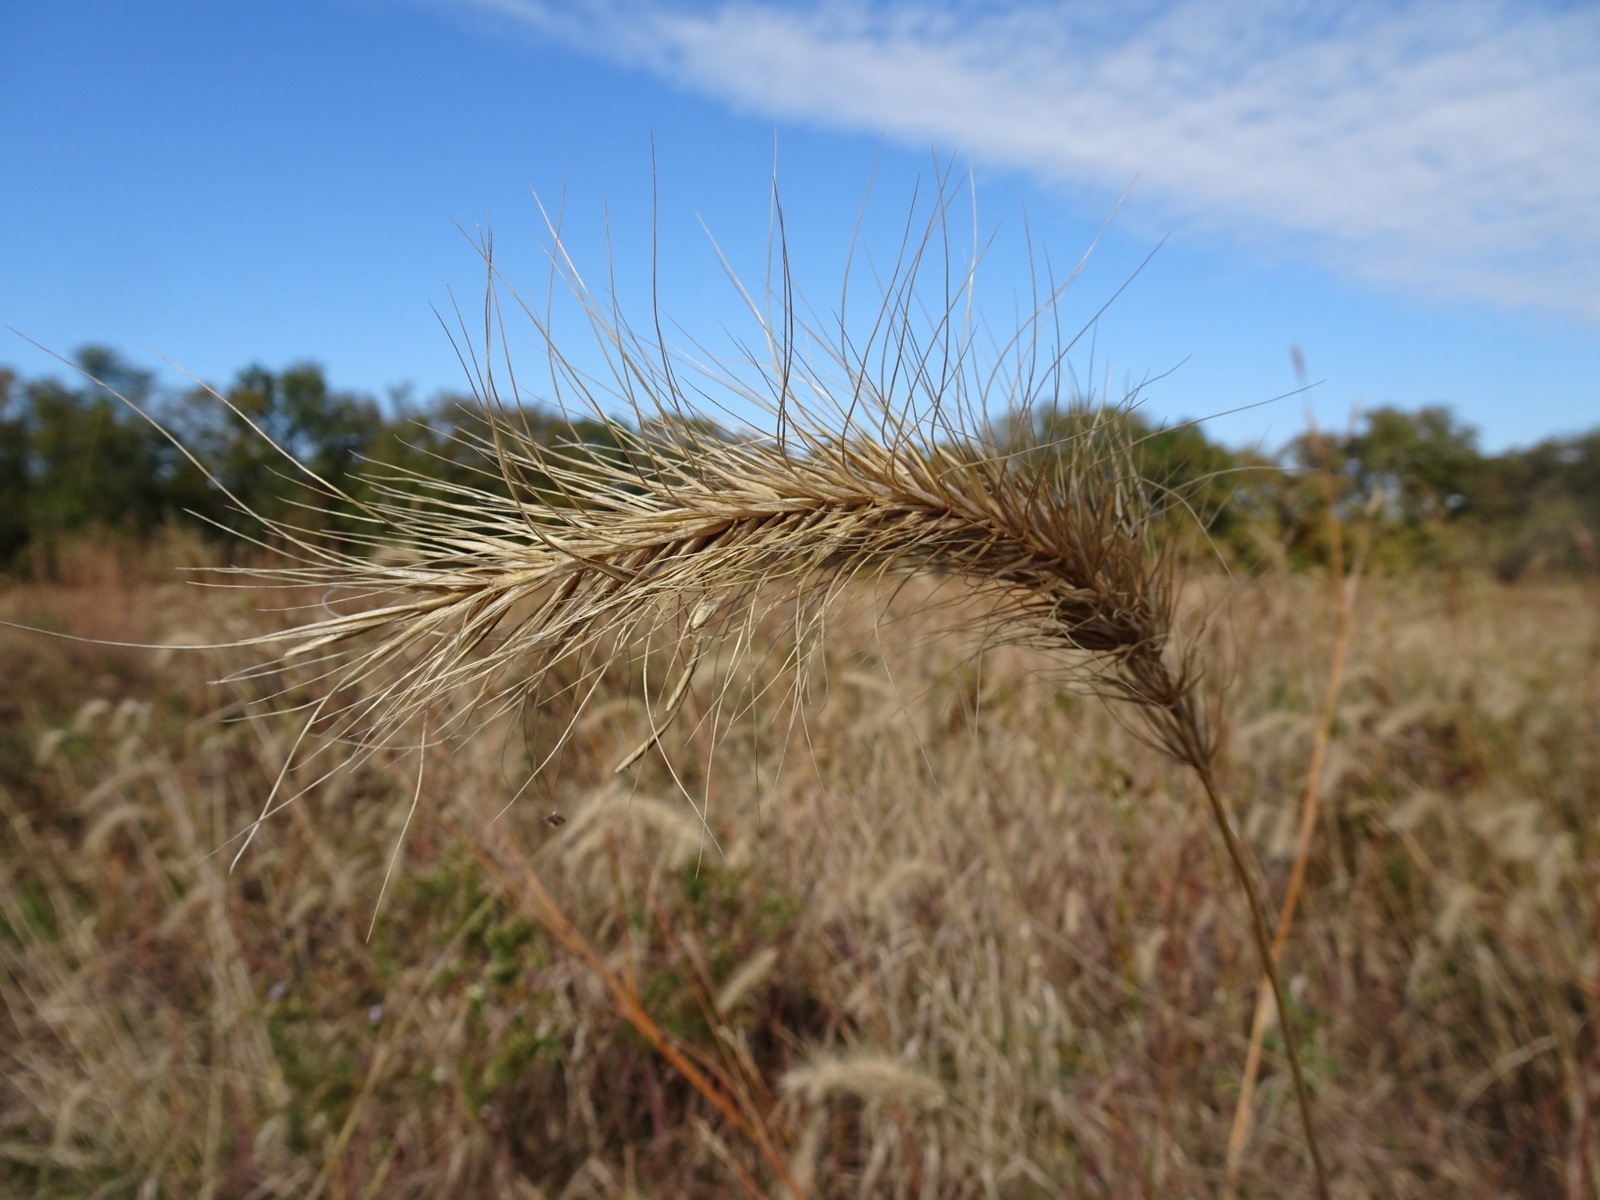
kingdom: Plantae
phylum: Tracheophyta
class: Liliopsida
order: Poales
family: Poaceae
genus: Elymus
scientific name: Elymus canadensis
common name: Canada wild rye
